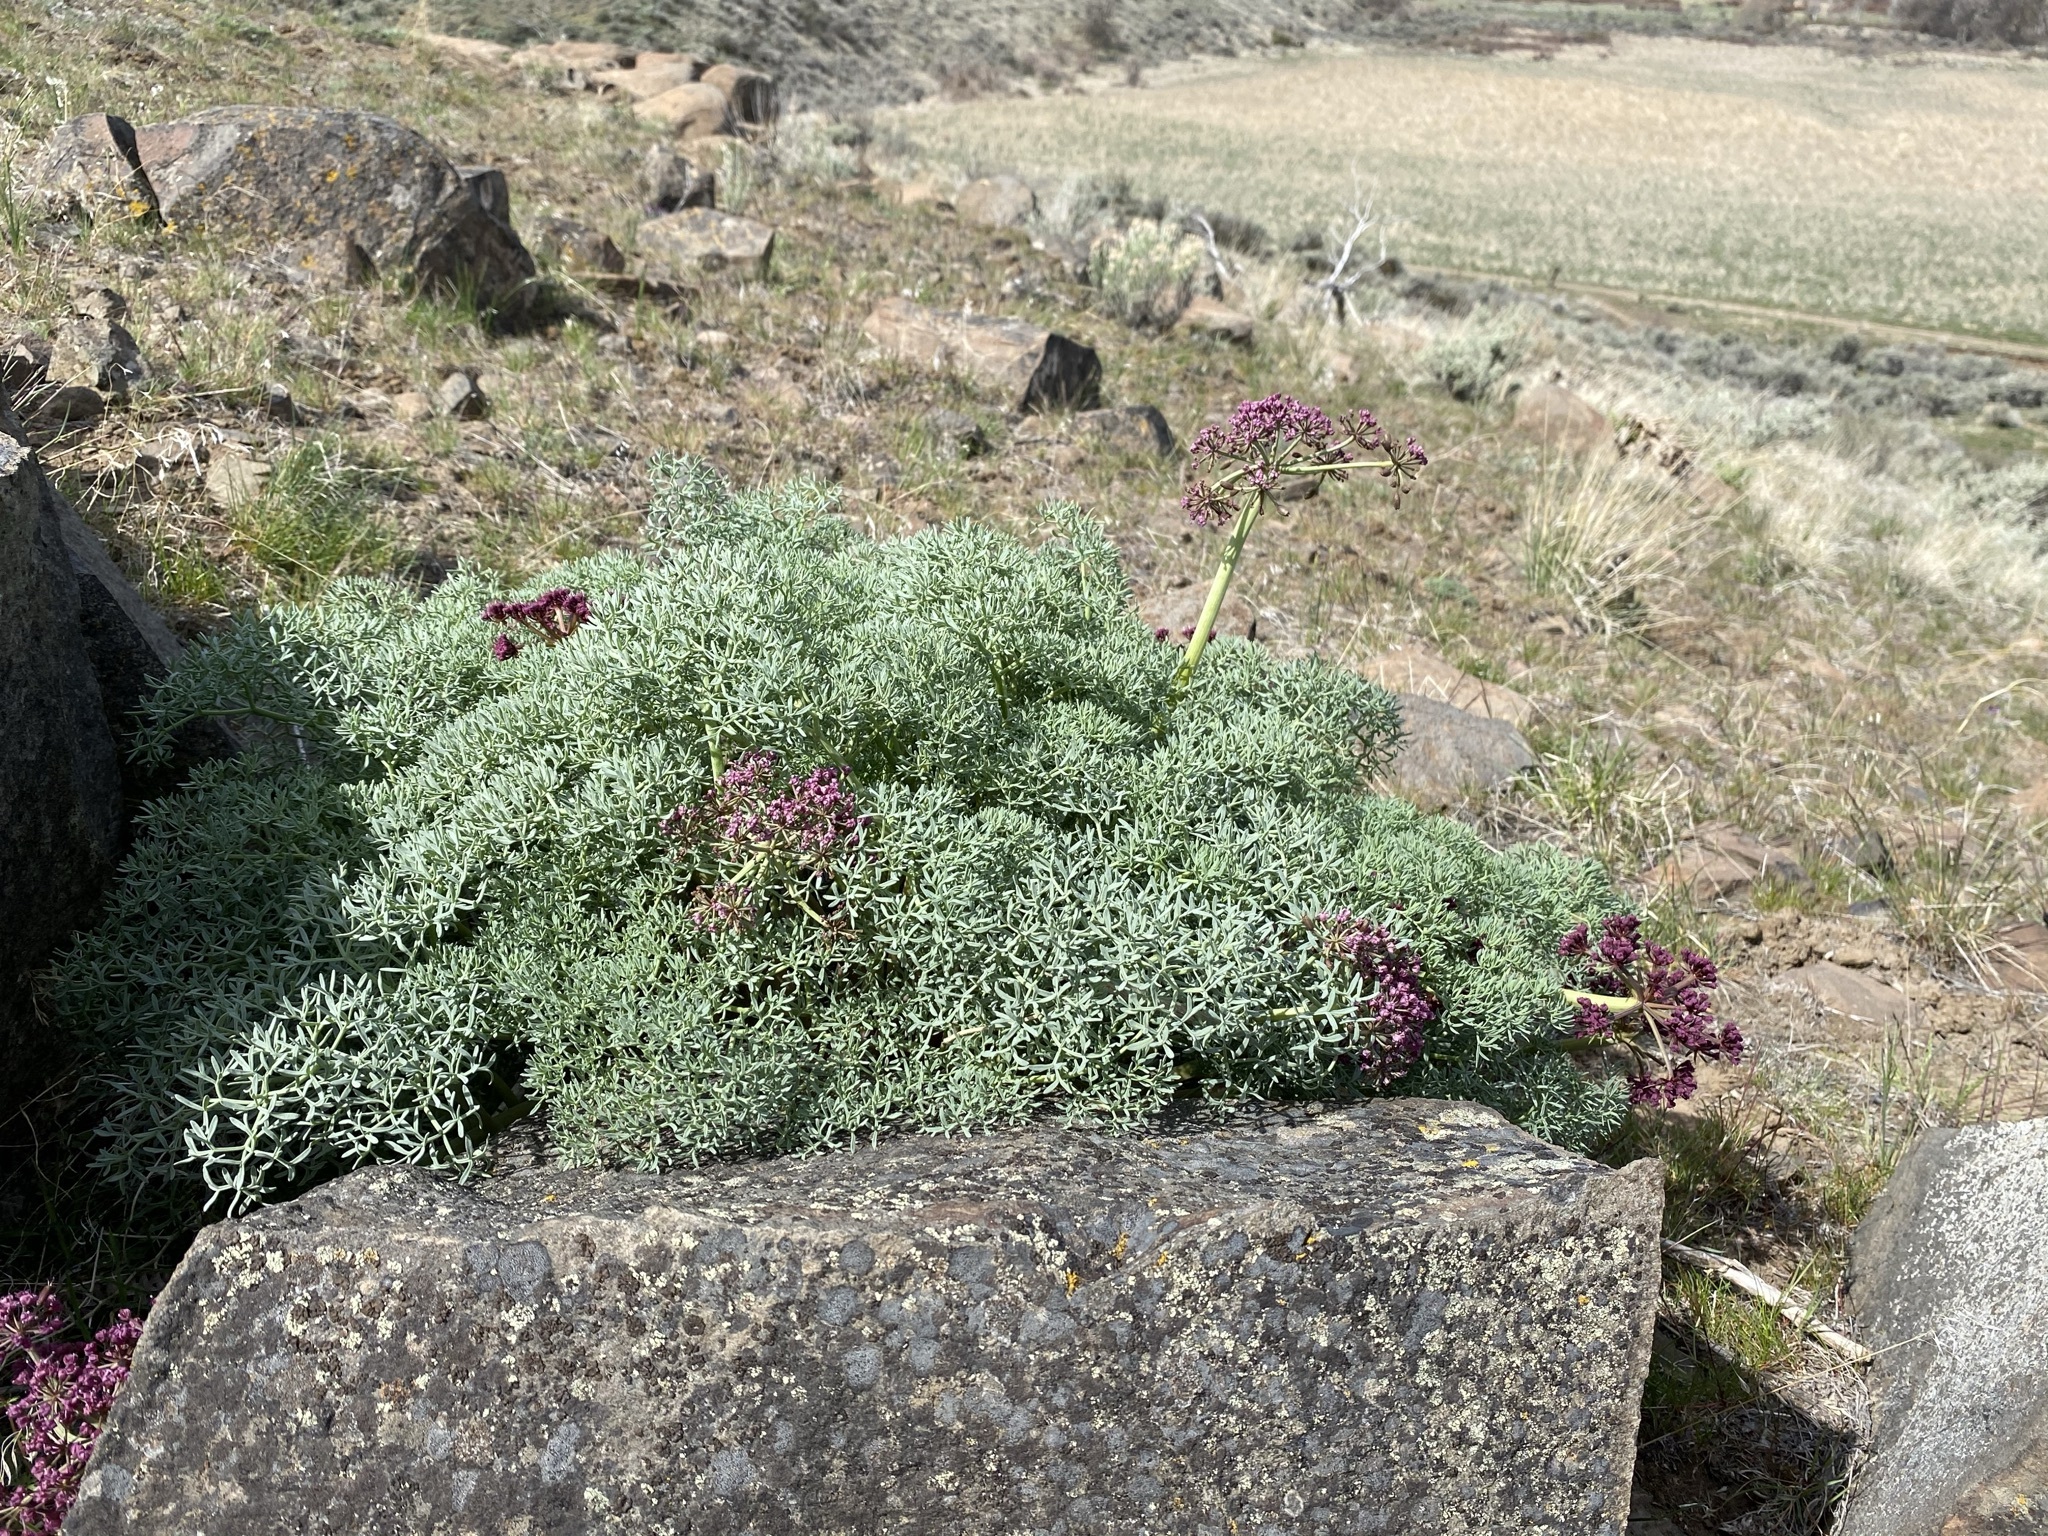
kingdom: Plantae
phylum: Tracheophyta
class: Magnoliopsida
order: Apiales
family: Apiaceae
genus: Lomatium
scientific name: Lomatium columbianum
